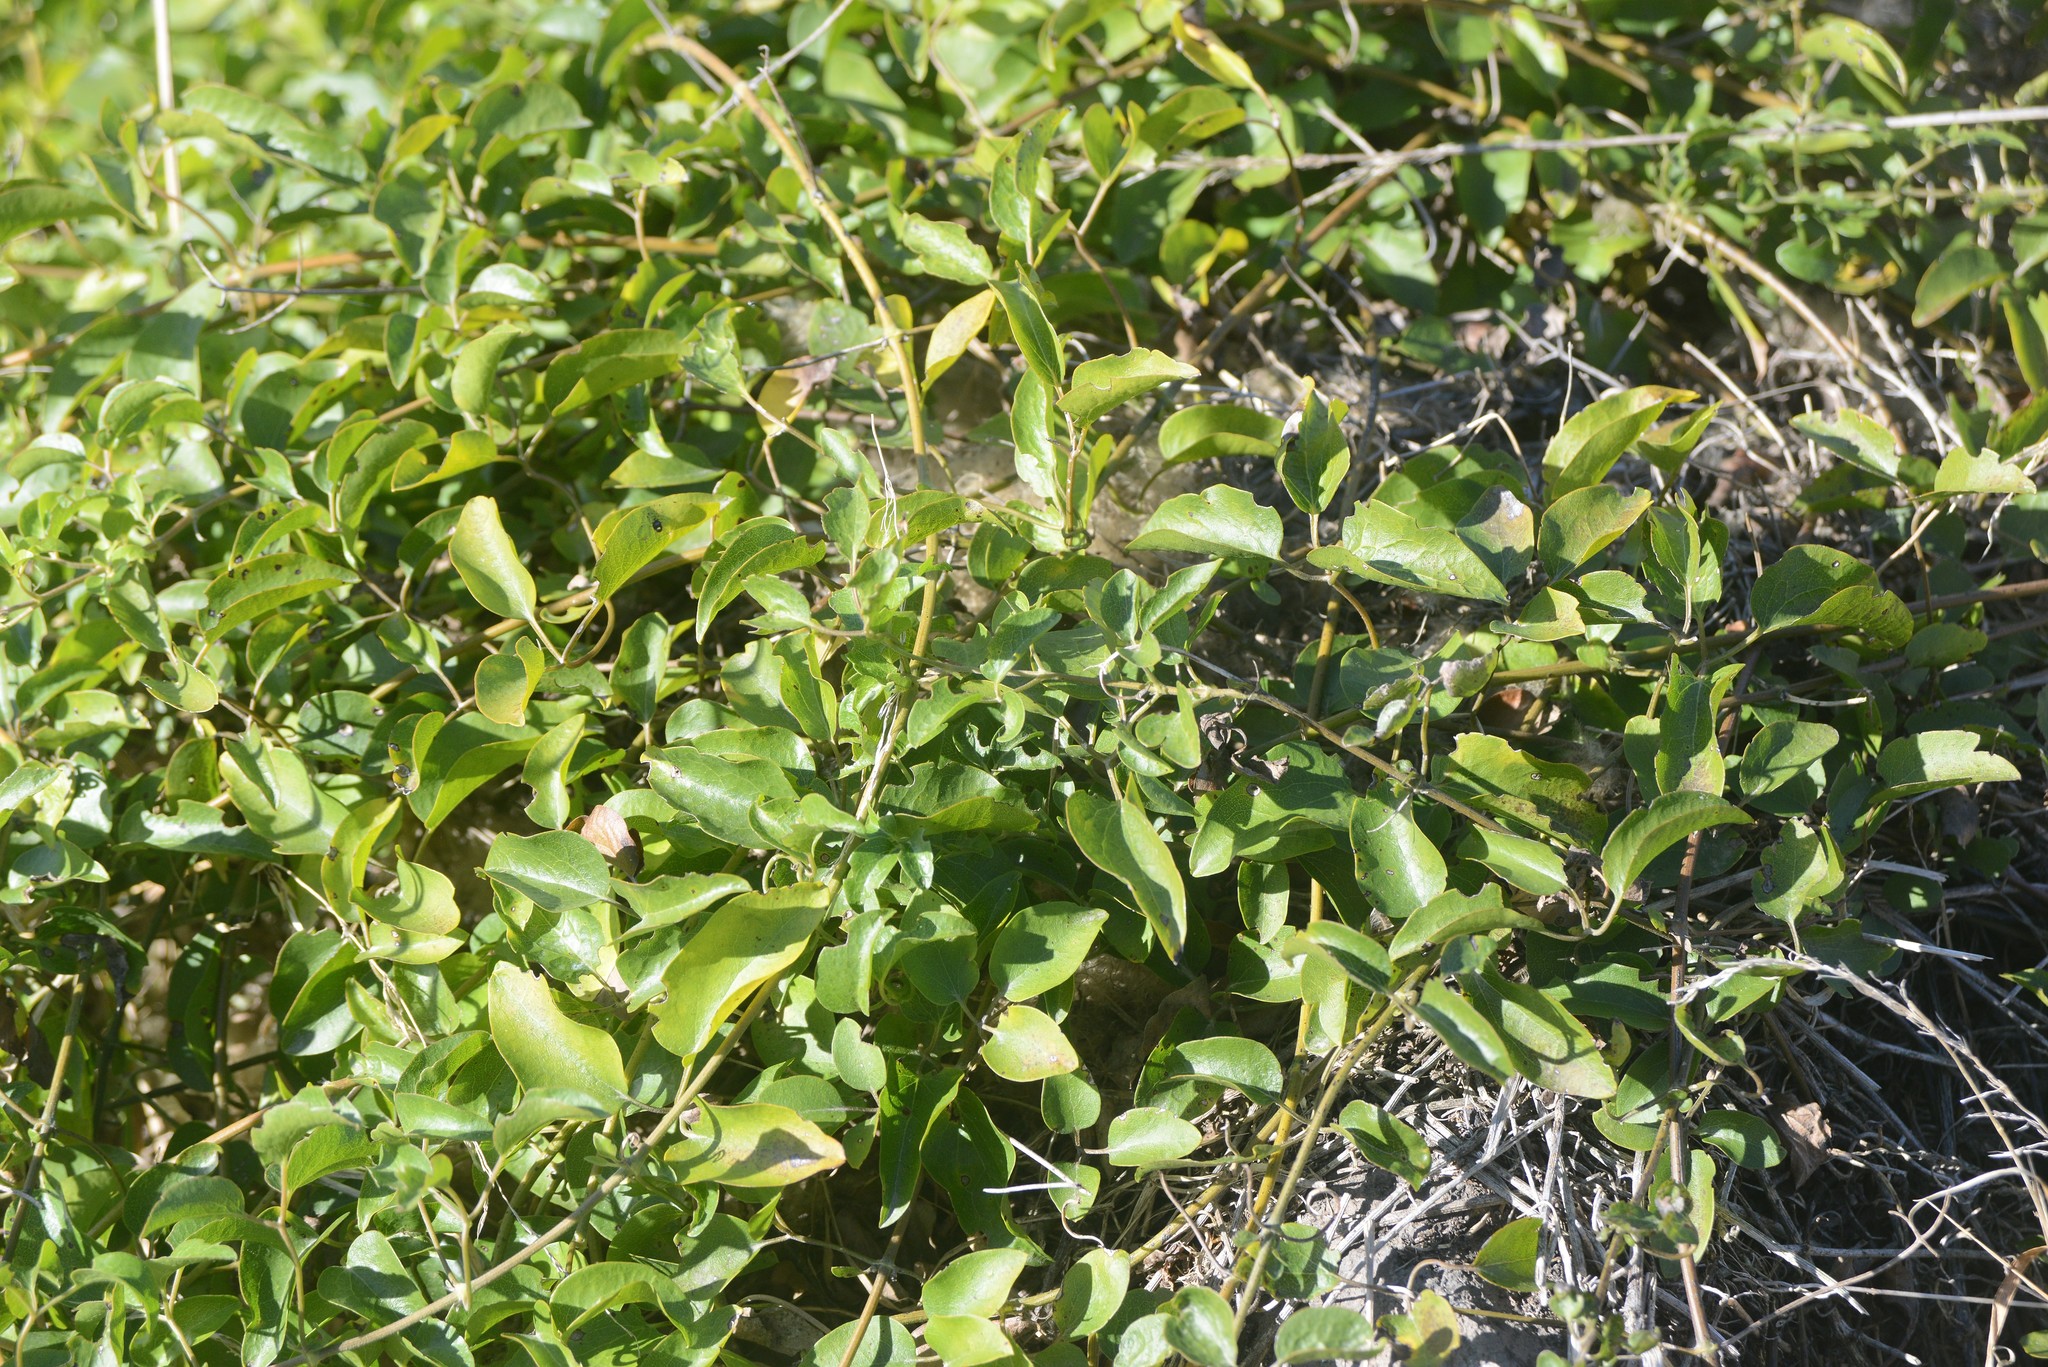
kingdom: Plantae
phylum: Tracheophyta
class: Magnoliopsida
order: Ranunculales
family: Ranunculaceae
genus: Clematis
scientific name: Clematis foetida
